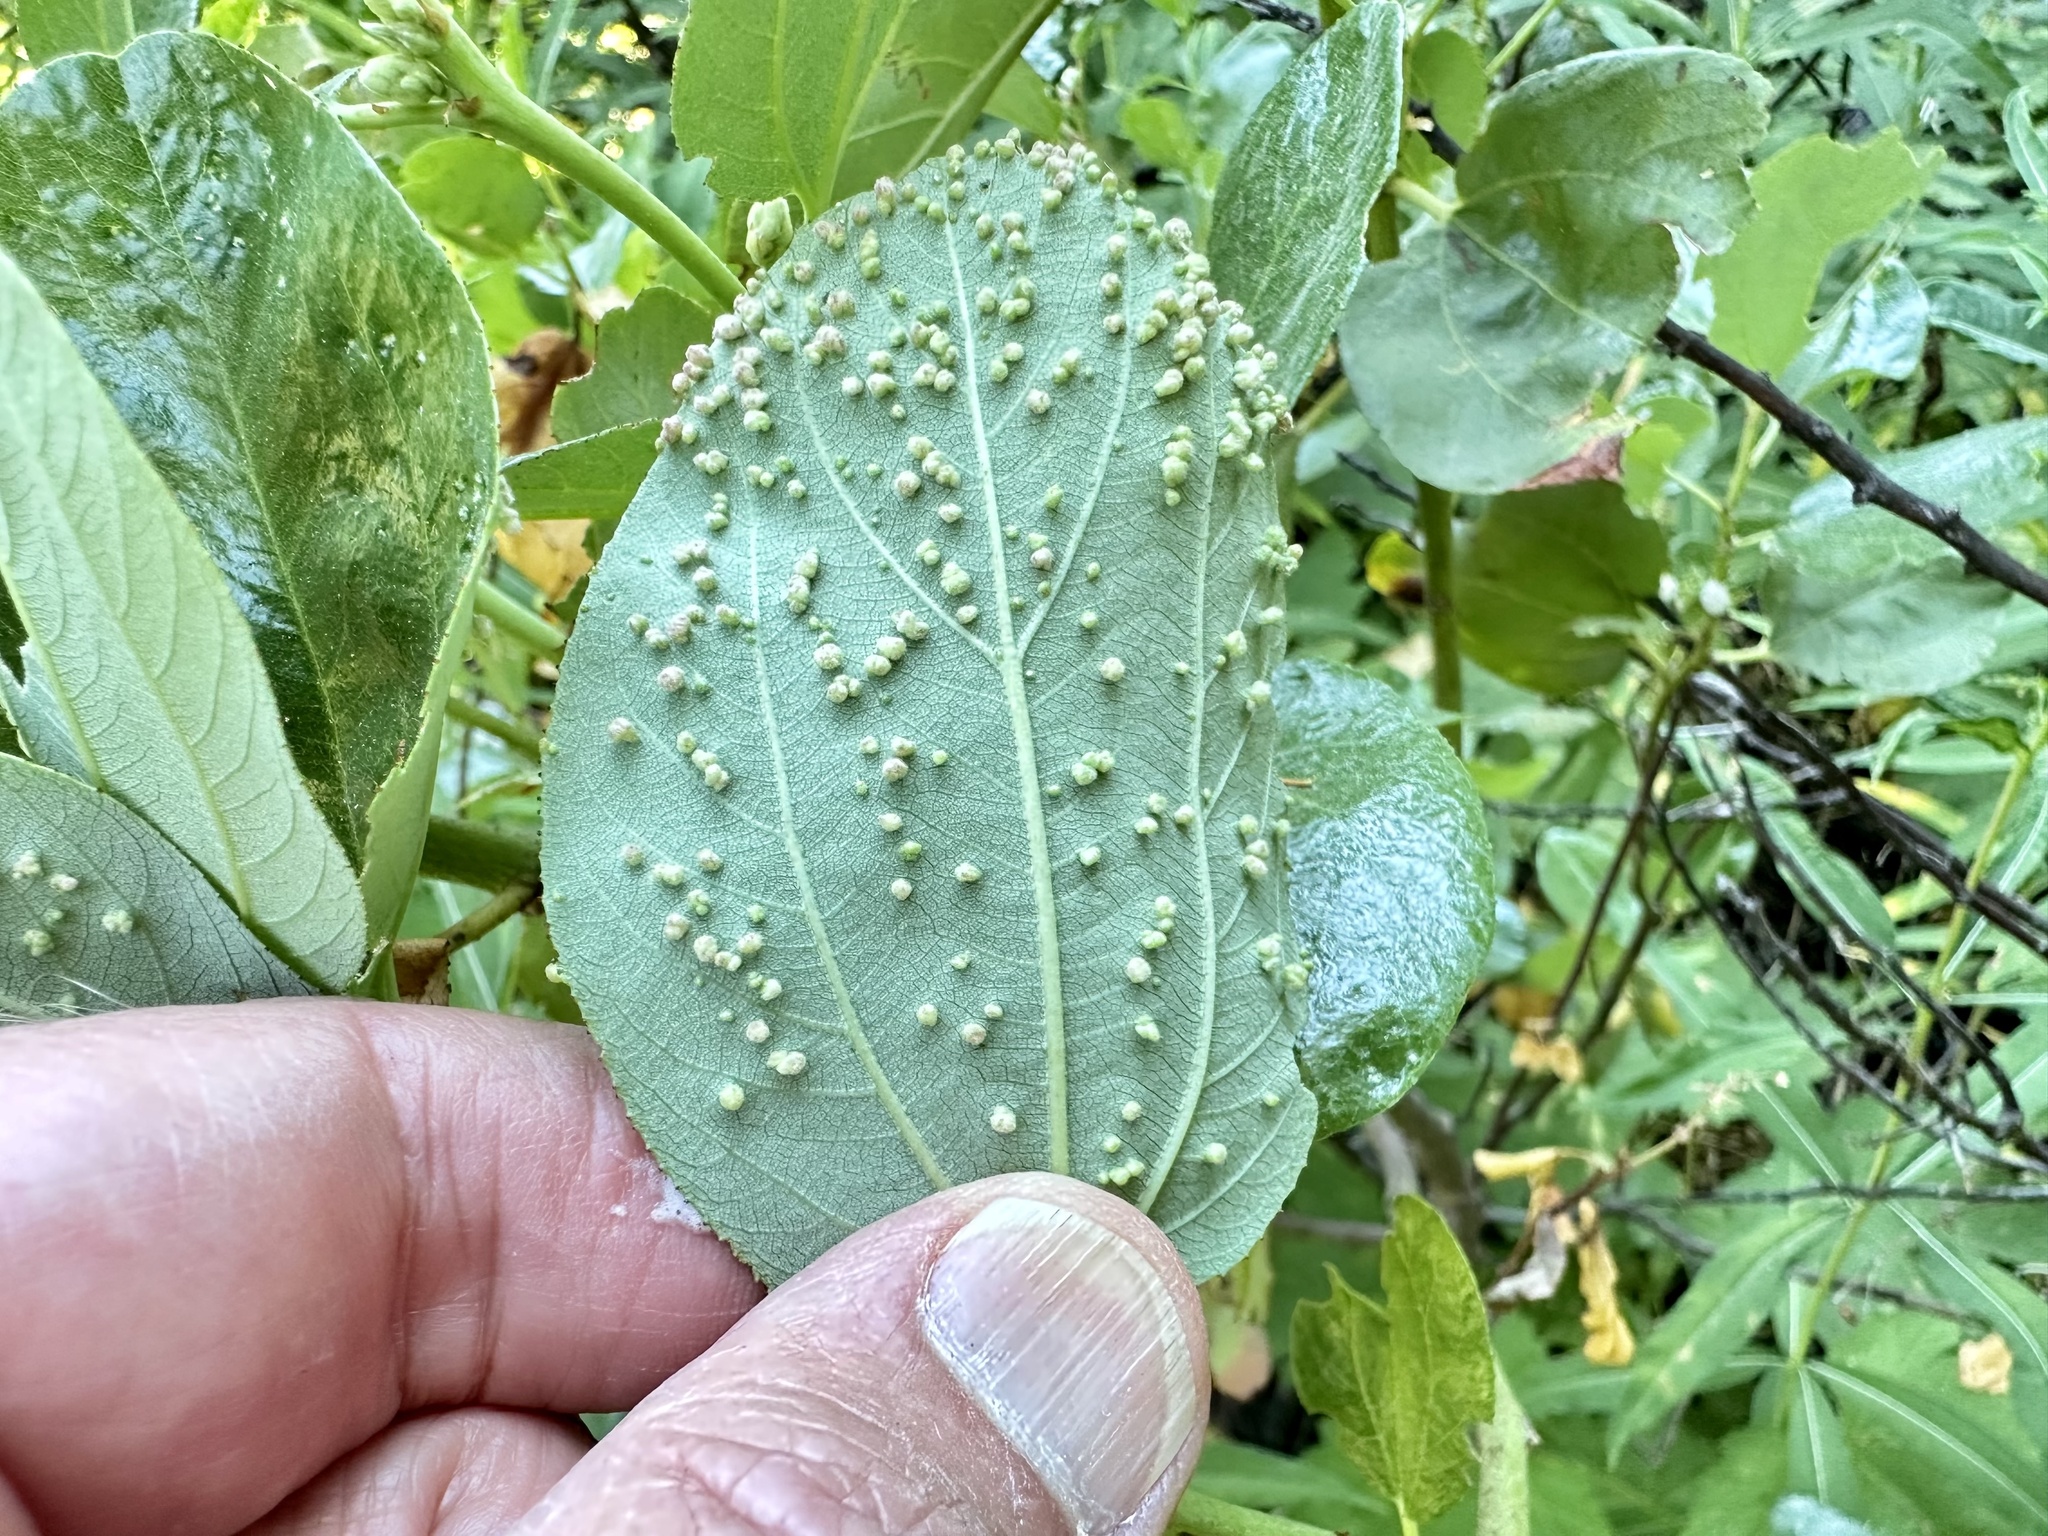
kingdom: Animalia
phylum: Arthropoda
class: Arachnida
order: Trombidiformes
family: Eriophyidae
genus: Aceria
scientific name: Aceria
